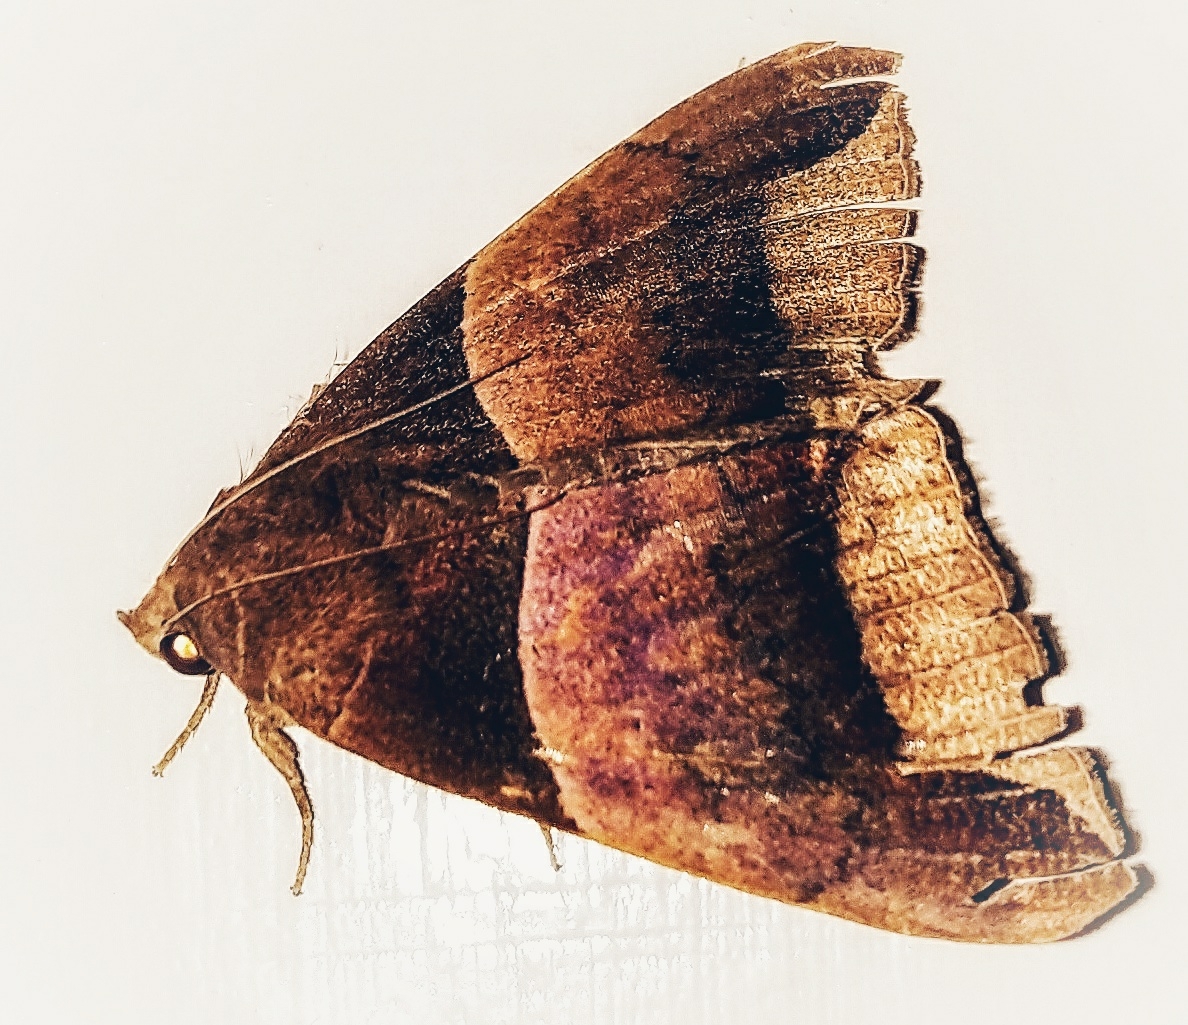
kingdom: Animalia
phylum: Arthropoda
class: Insecta
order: Lepidoptera
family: Erebidae
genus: Achaea
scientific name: Achaea echo
